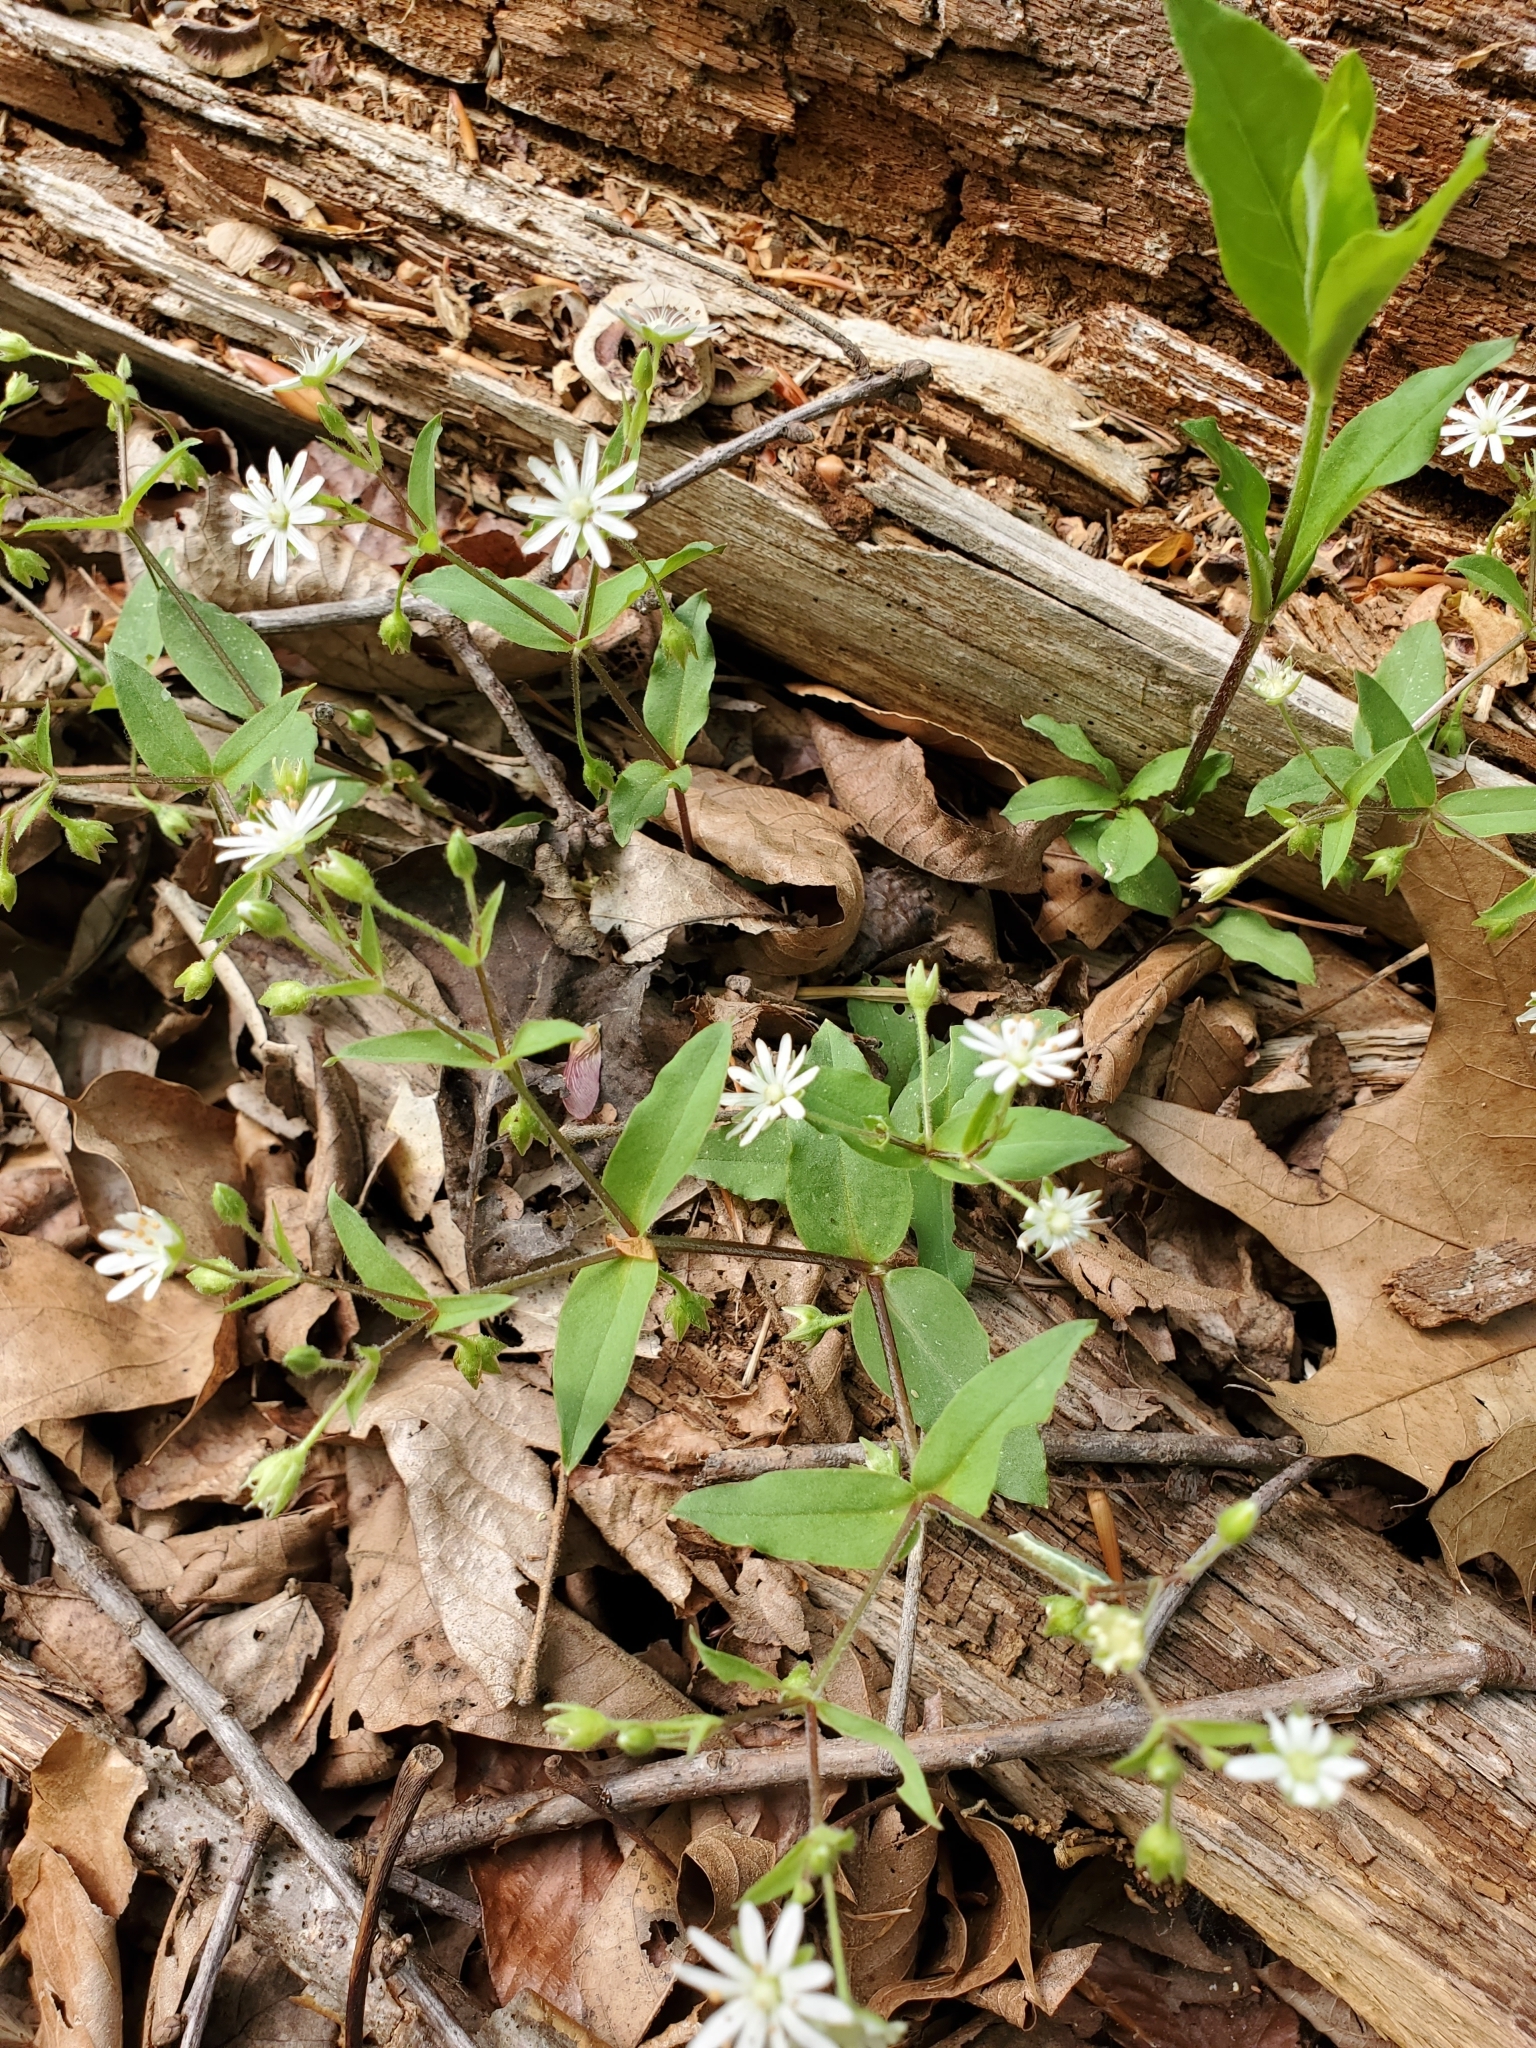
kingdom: Plantae
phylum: Tracheophyta
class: Magnoliopsida
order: Caryophyllales
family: Caryophyllaceae
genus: Stellaria
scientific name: Stellaria pubera
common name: Star chickweed
